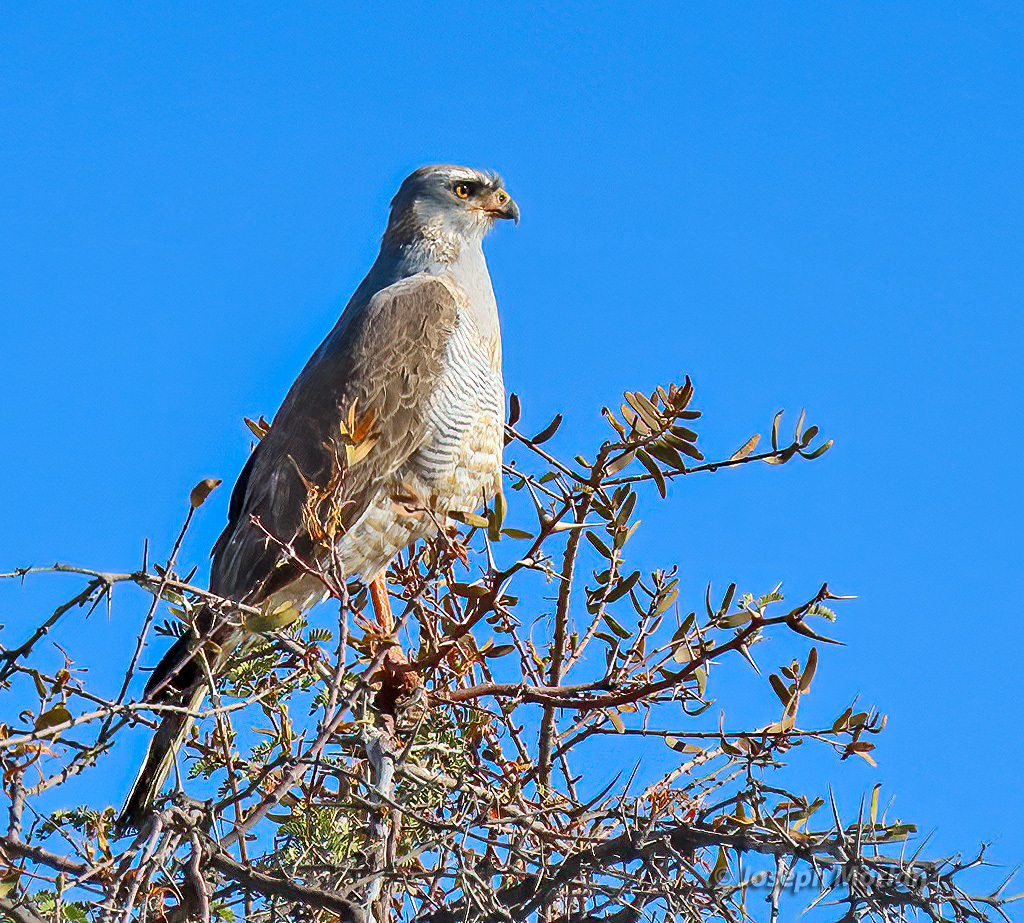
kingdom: Animalia
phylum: Chordata
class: Aves
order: Accipitriformes
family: Accipitridae
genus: Melierax
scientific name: Melierax canorus
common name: Pale chanting-goshawk
